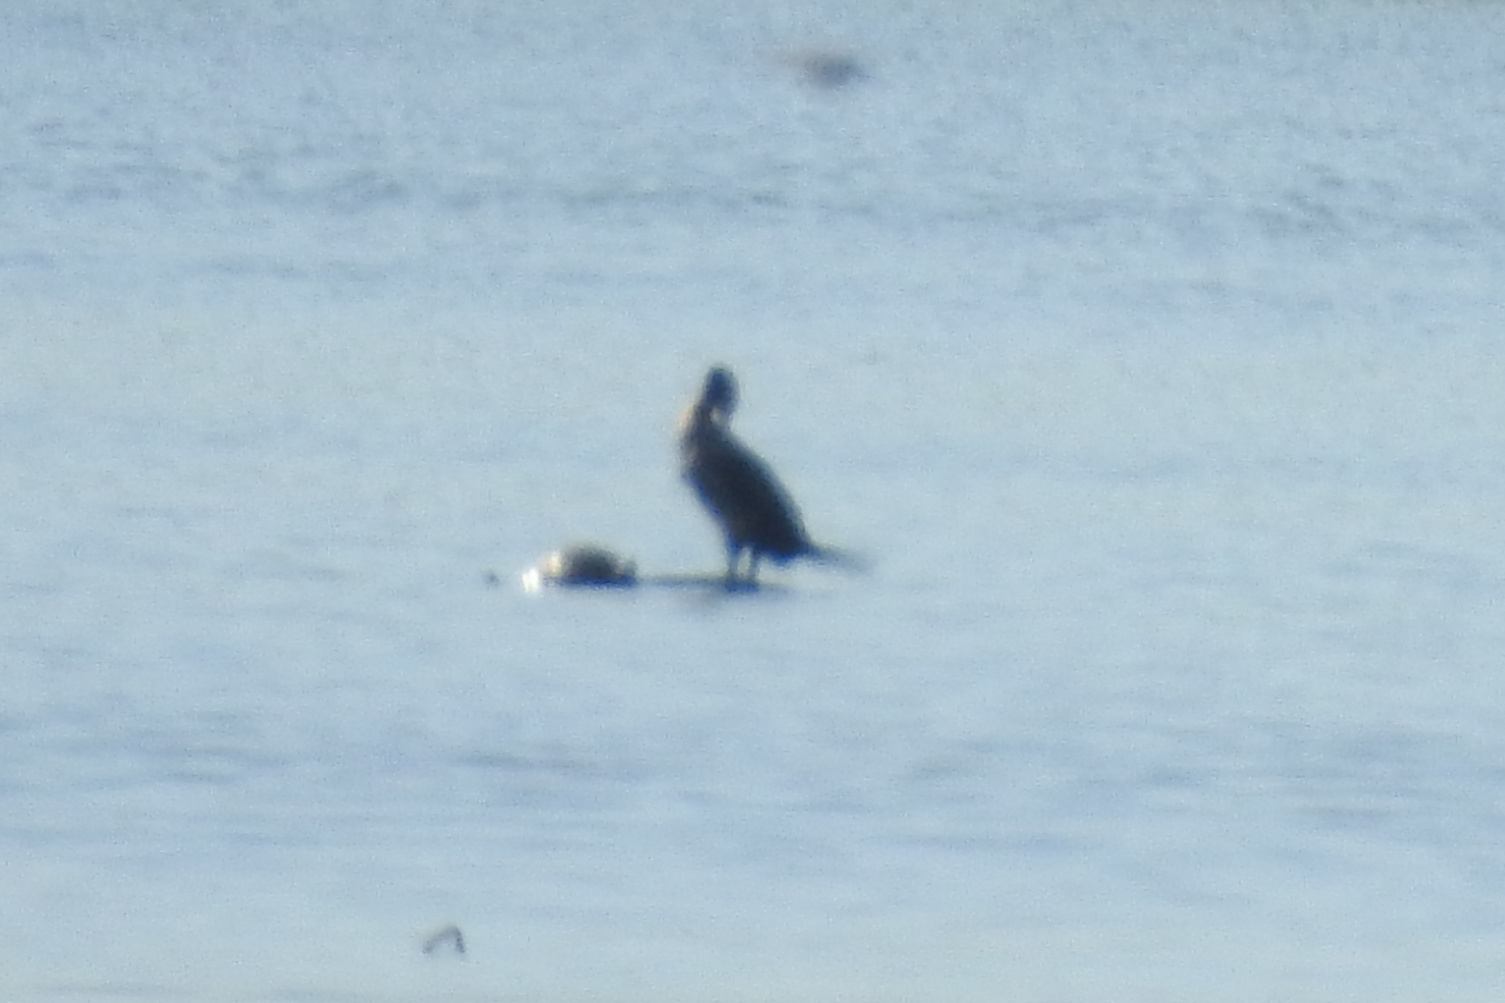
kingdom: Animalia
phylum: Chordata
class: Aves
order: Suliformes
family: Phalacrocoracidae
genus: Phalacrocorax
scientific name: Phalacrocorax auritus
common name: Double-crested cormorant
